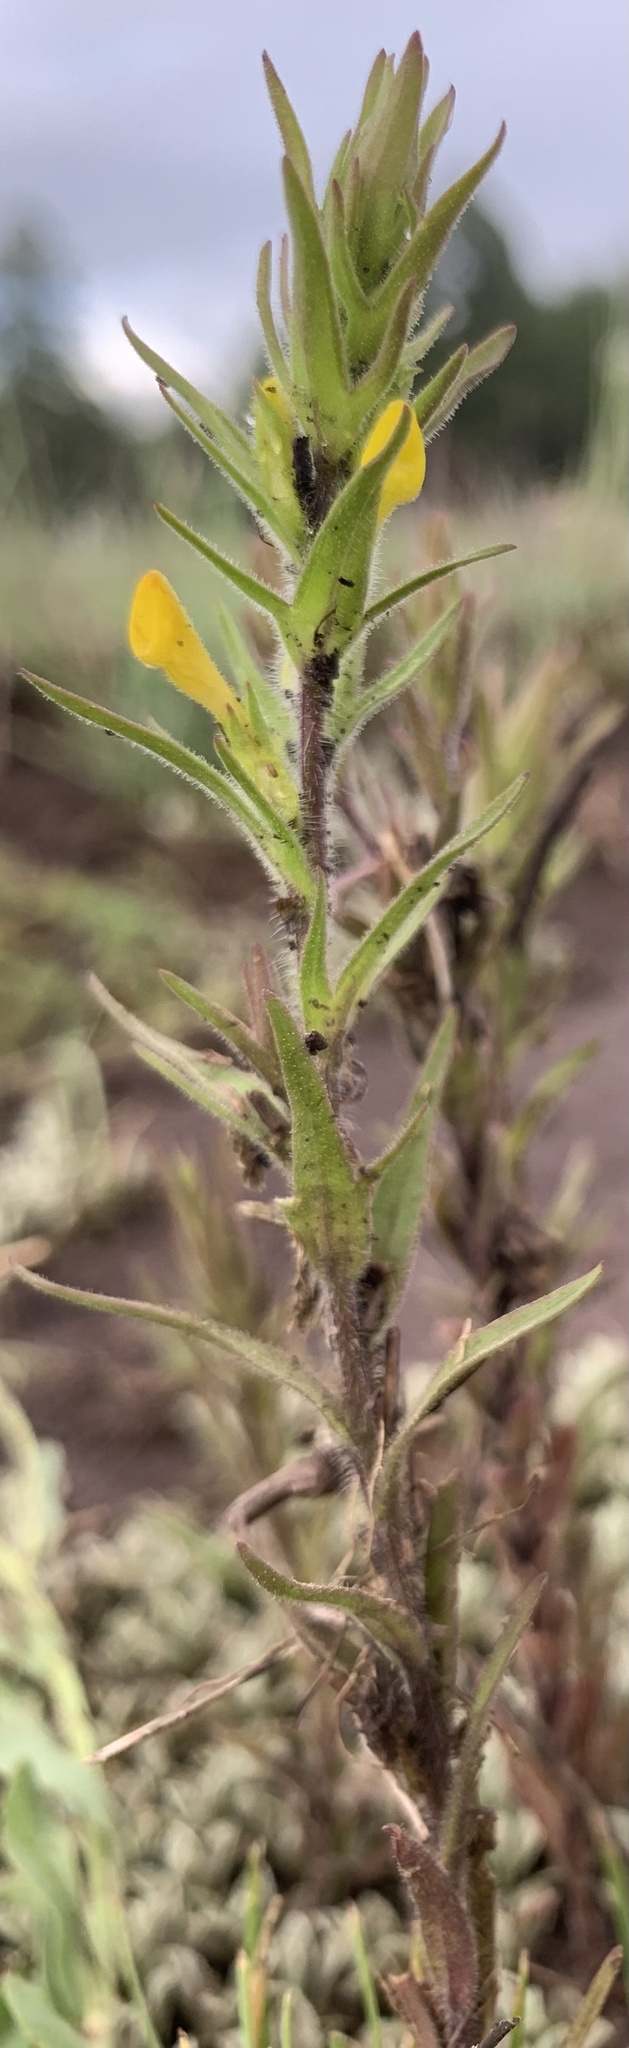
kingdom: Plantae
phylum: Tracheophyta
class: Magnoliopsida
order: Lamiales
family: Orobanchaceae
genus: Orthocarpus
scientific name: Orthocarpus luteus
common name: Golden-tongue owl's-clover
